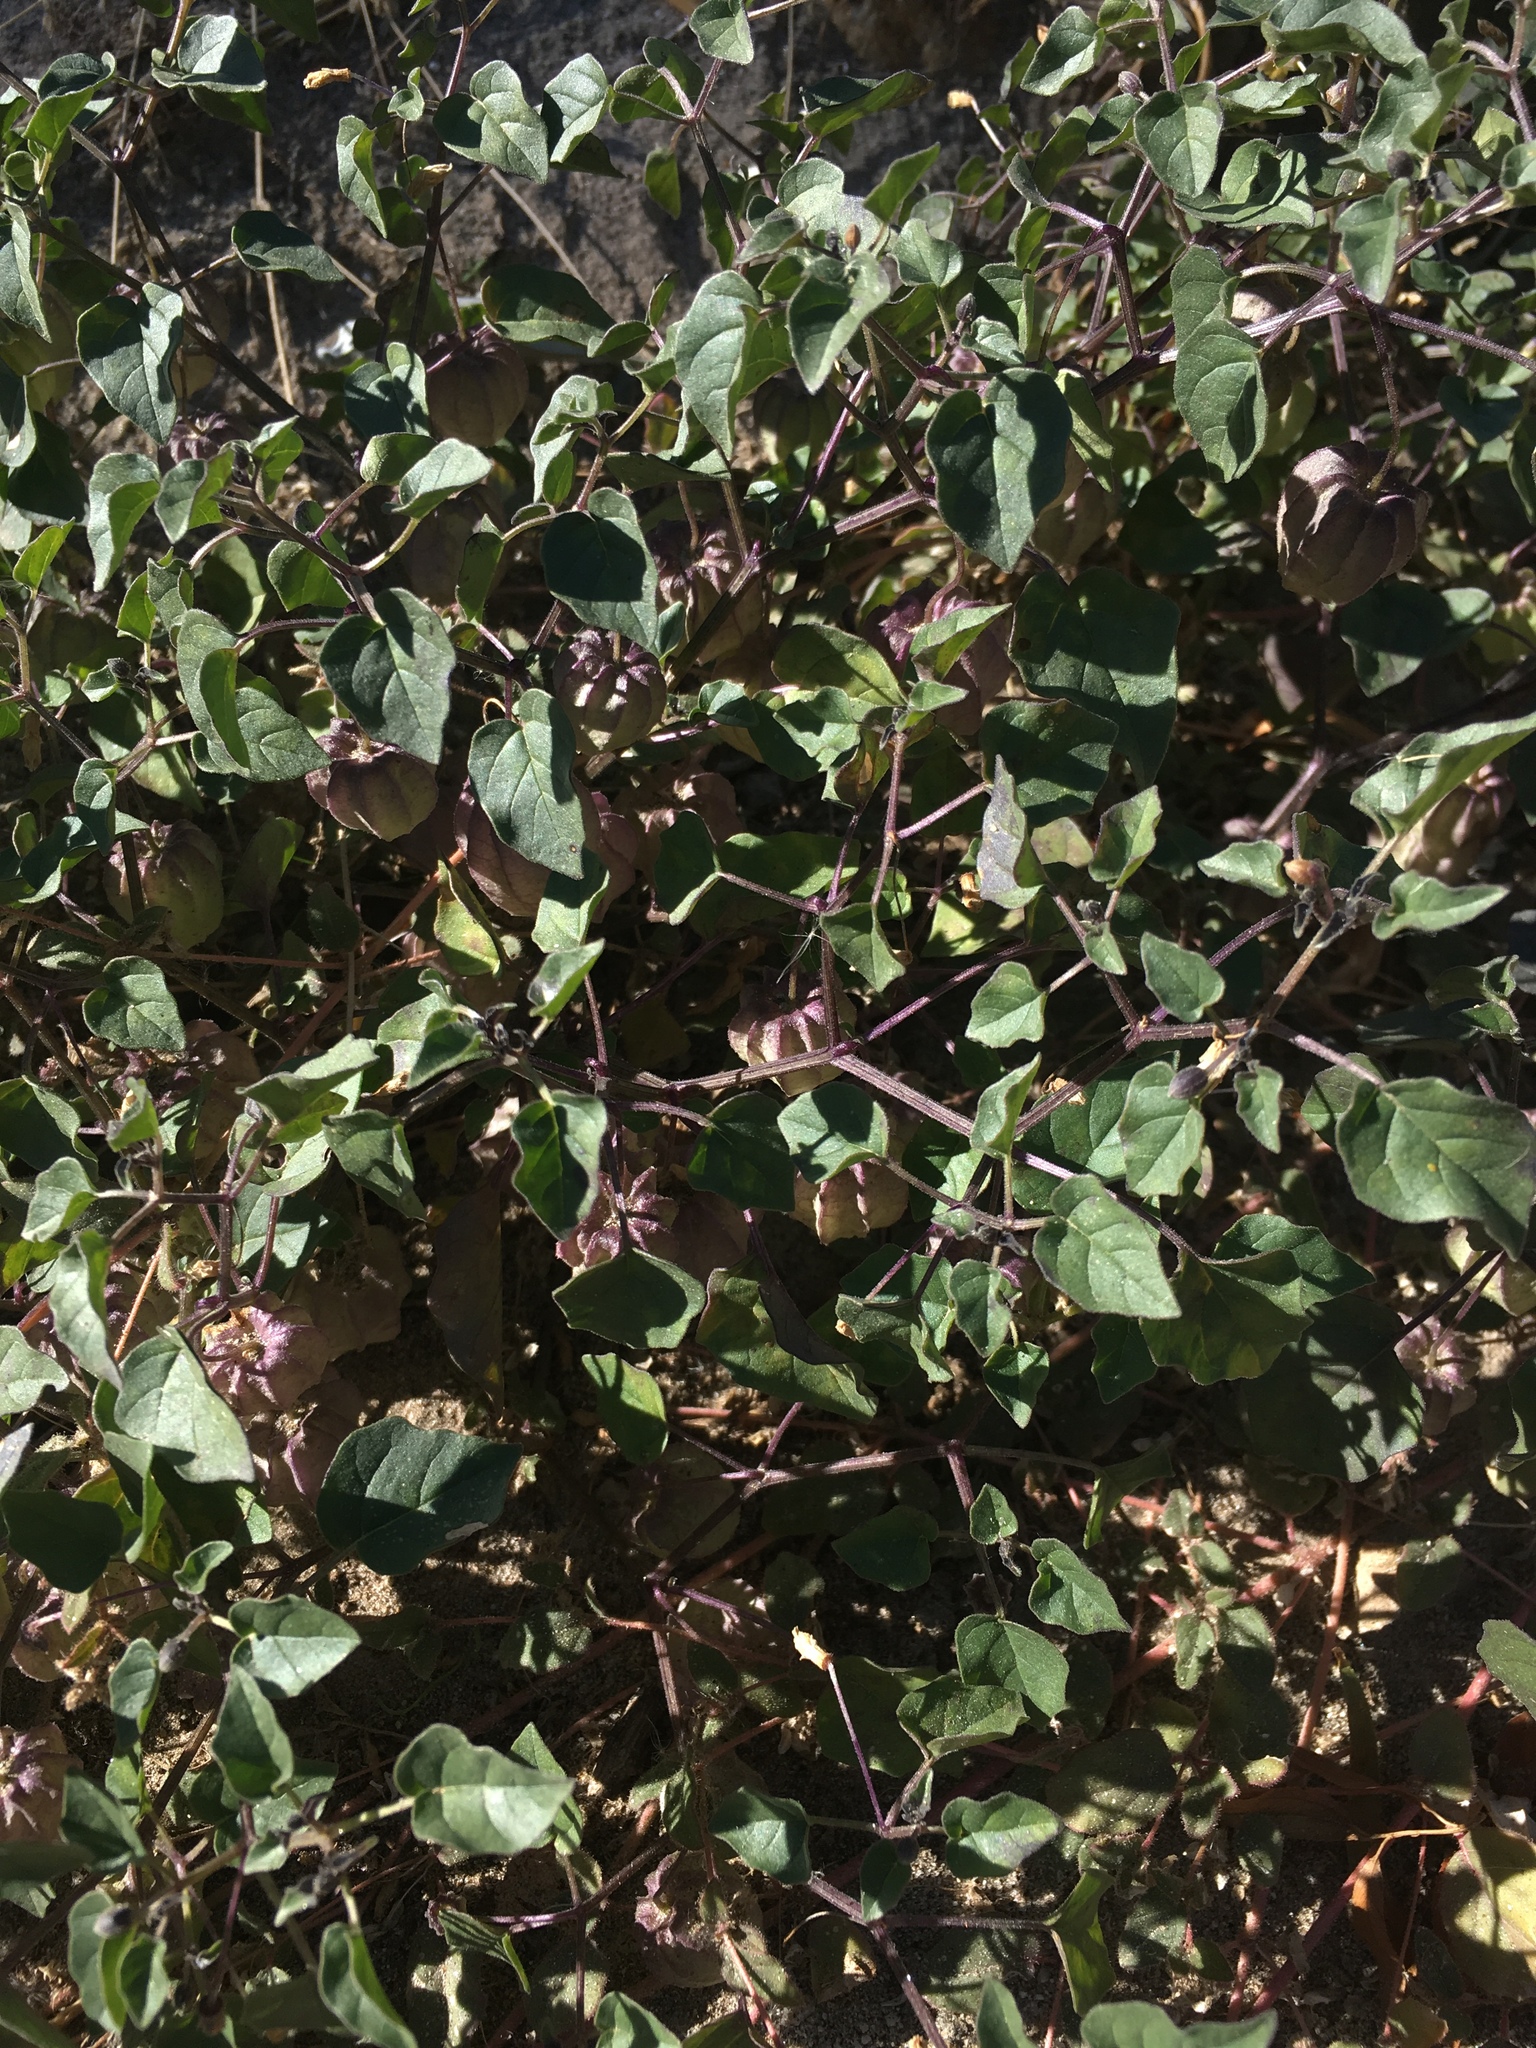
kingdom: Plantae
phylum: Tracheophyta
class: Magnoliopsida
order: Solanales
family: Solanaceae
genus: Physalis
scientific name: Physalis crassifolia
